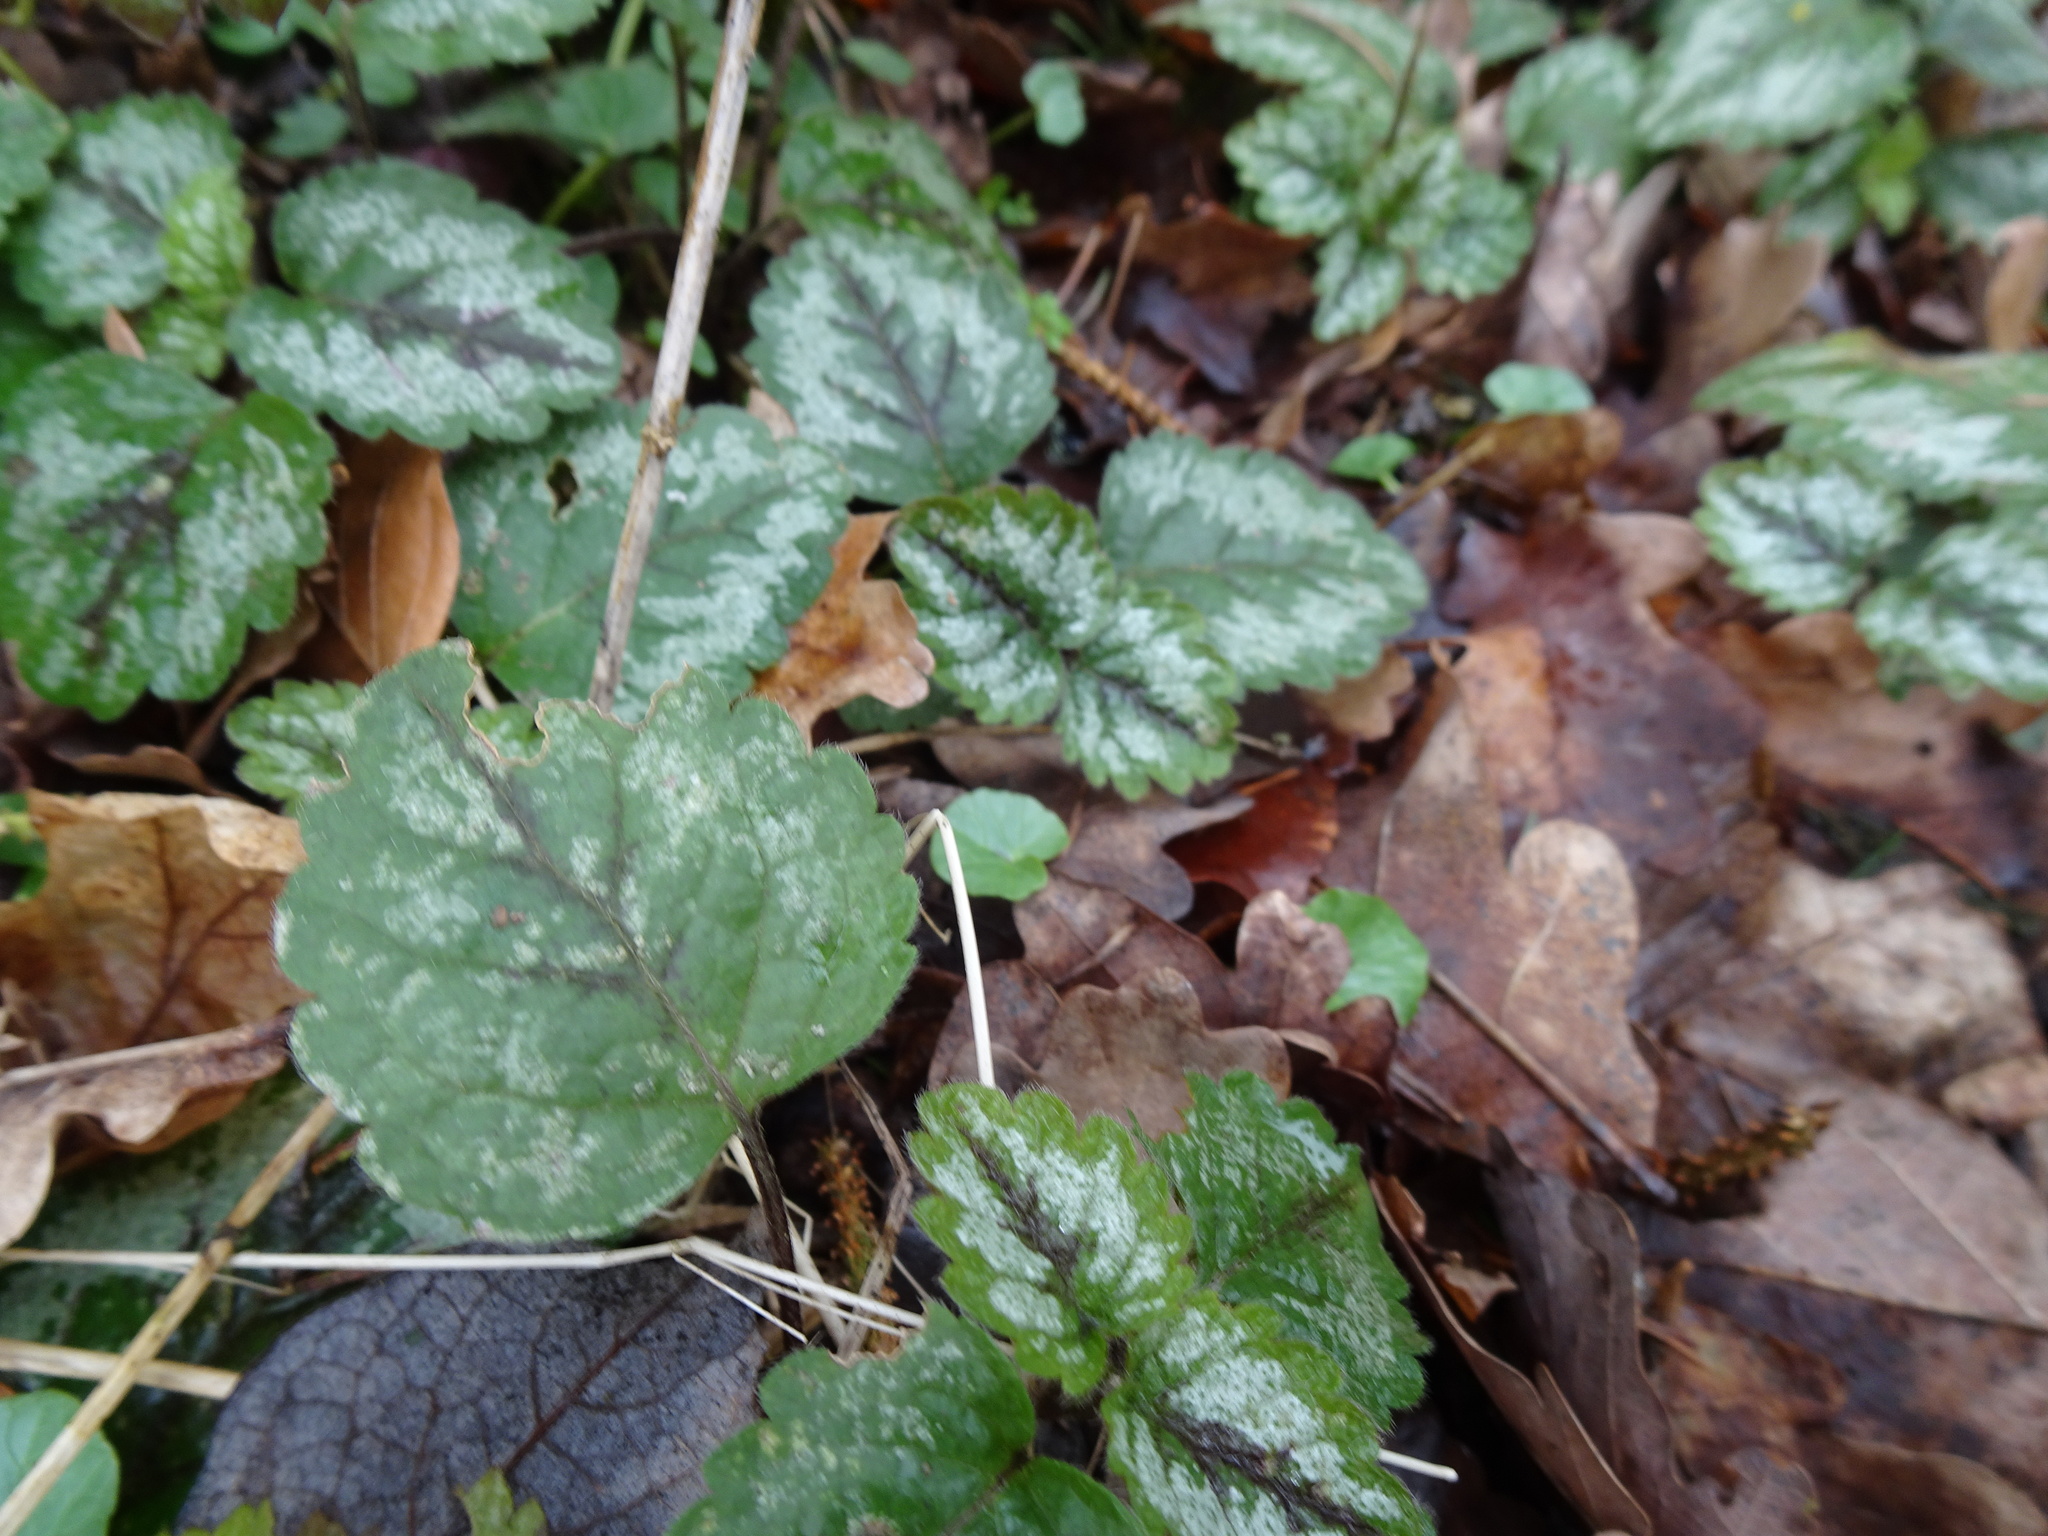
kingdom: Plantae
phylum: Tracheophyta
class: Magnoliopsida
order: Lamiales
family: Lamiaceae
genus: Lamium
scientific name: Lamium galeobdolon
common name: Yellow archangel
